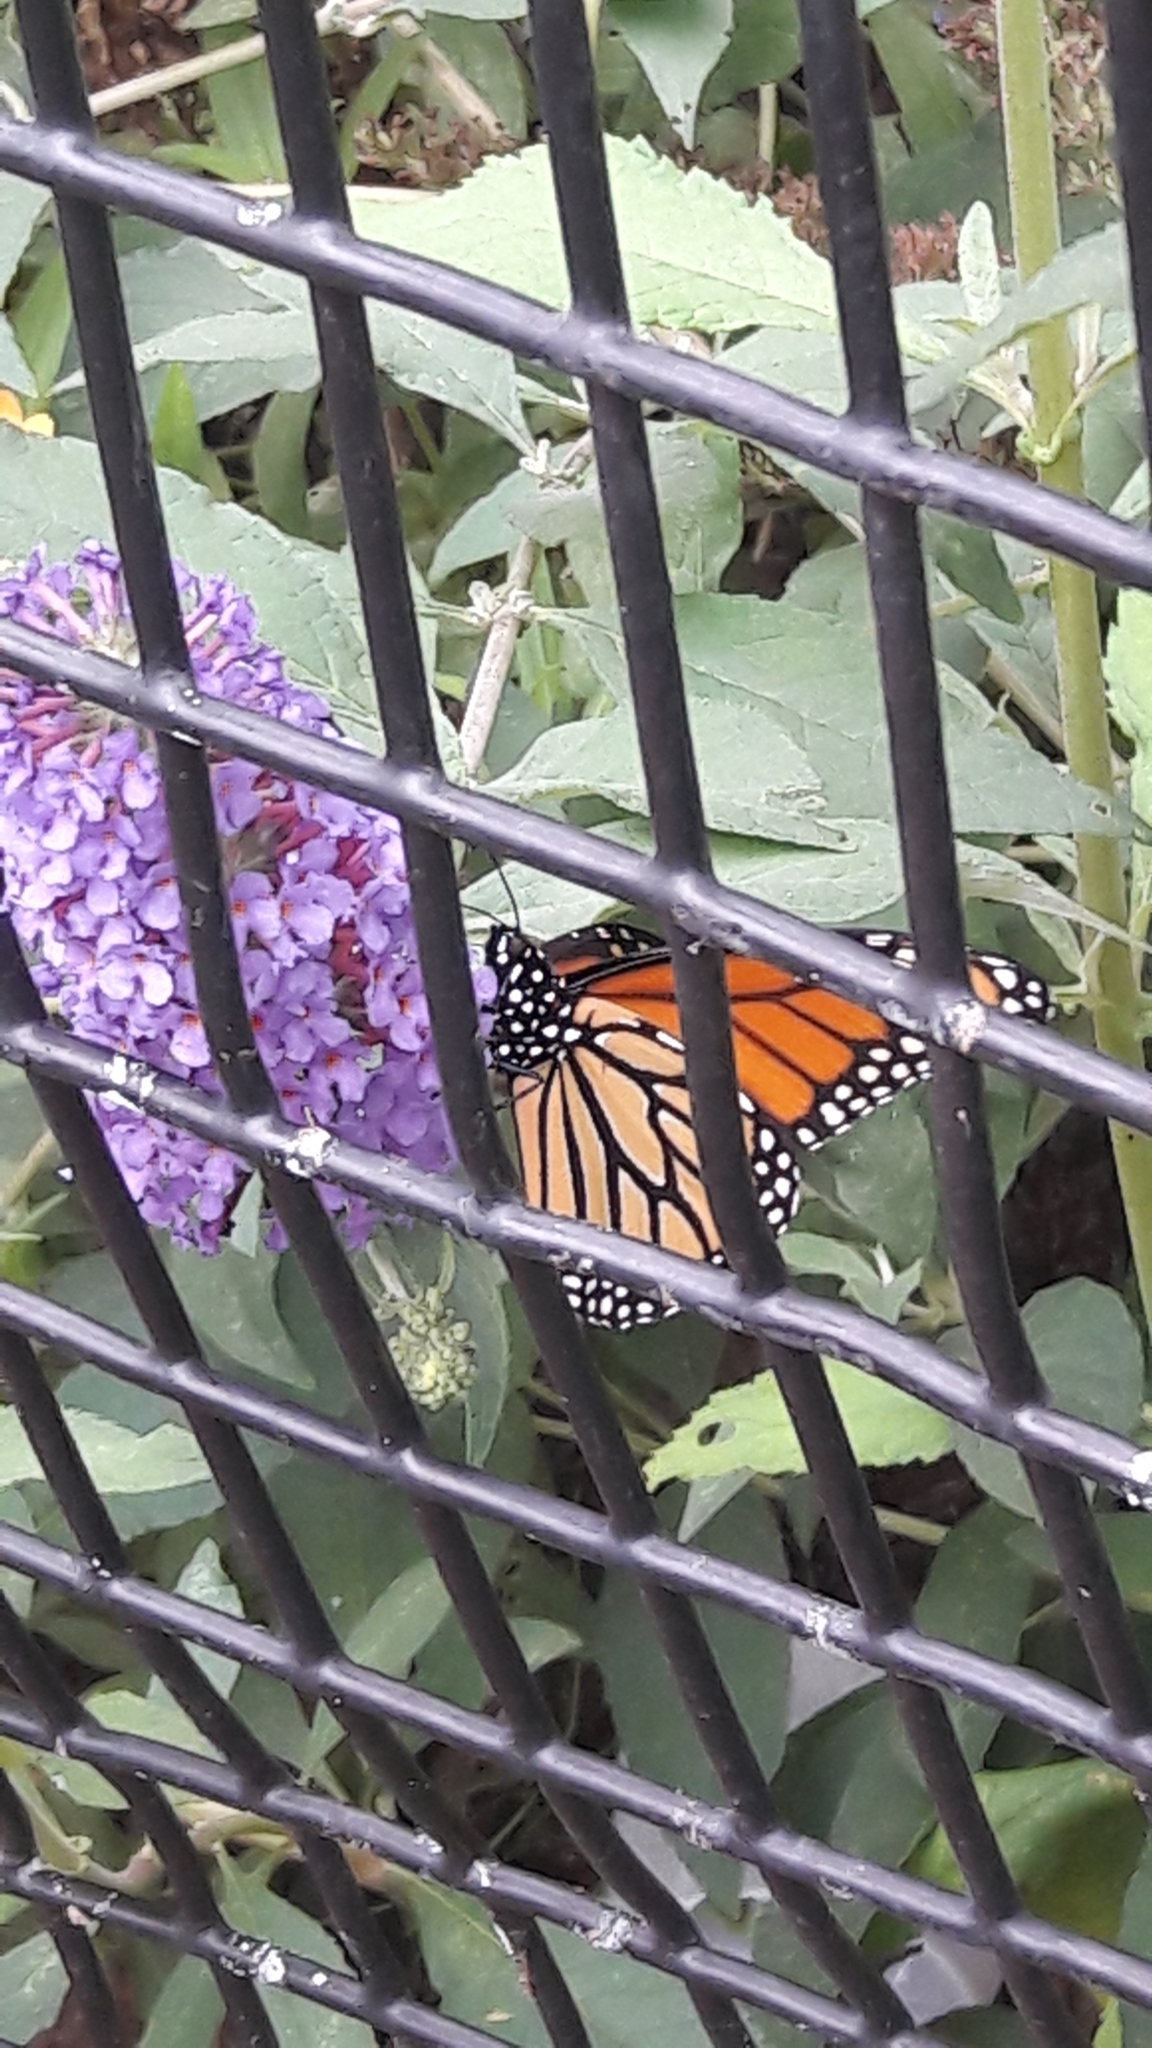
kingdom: Animalia
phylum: Arthropoda
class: Insecta
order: Lepidoptera
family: Nymphalidae
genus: Danaus
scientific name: Danaus plexippus
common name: Monarch
